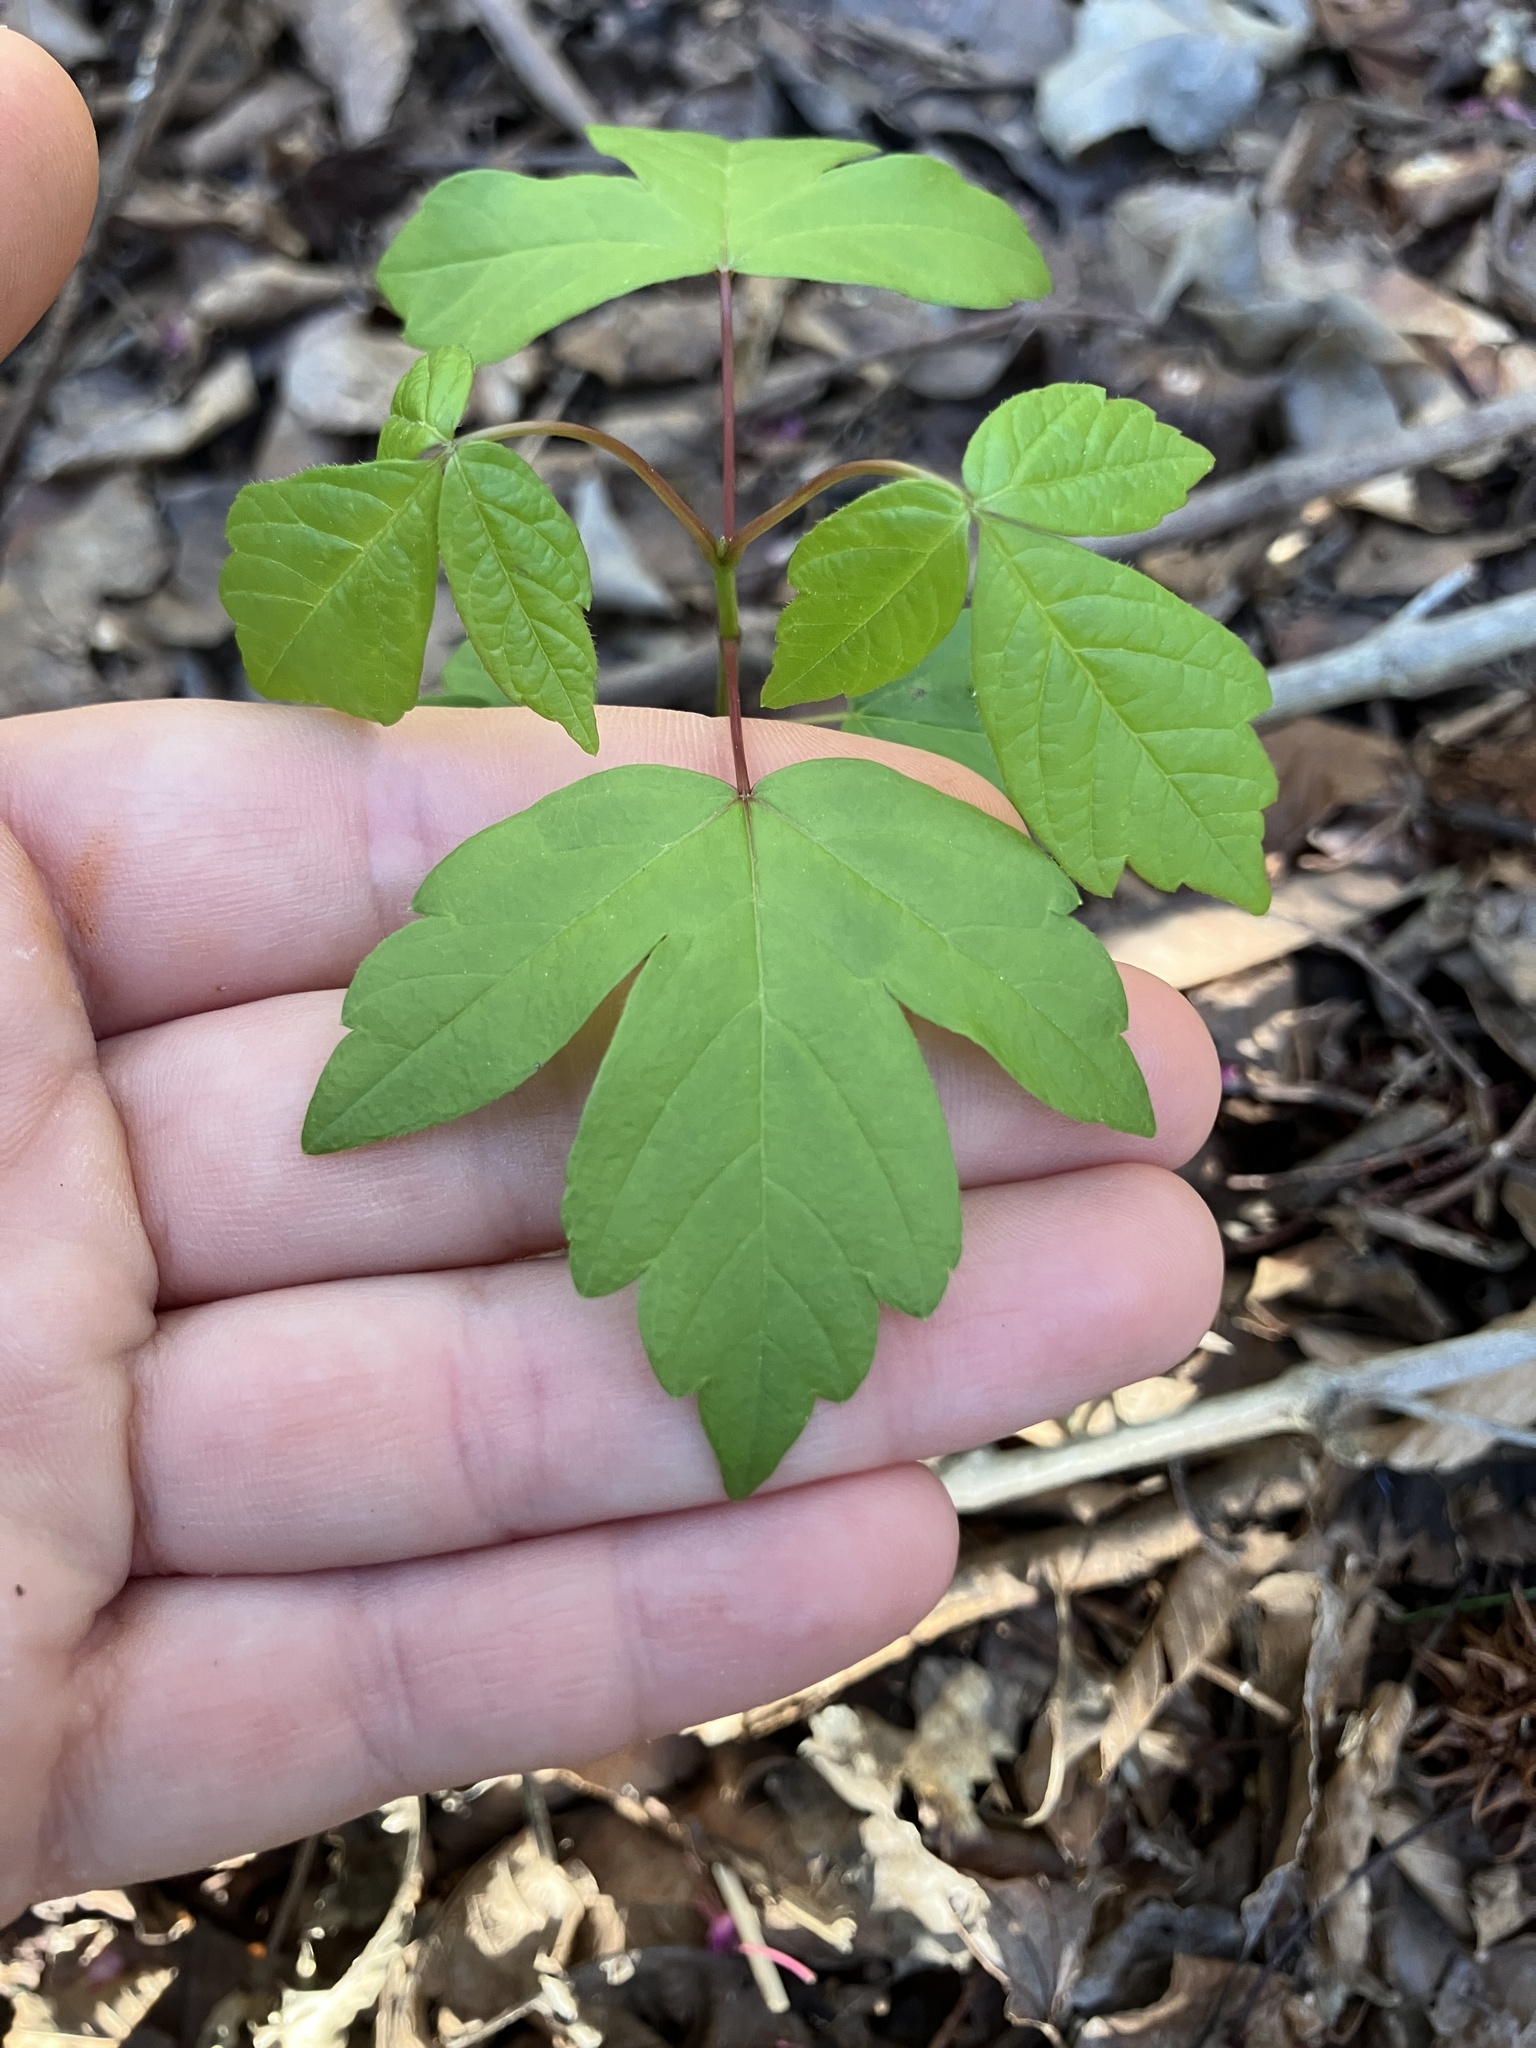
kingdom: Plantae
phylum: Tracheophyta
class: Magnoliopsida
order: Sapindales
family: Sapindaceae
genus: Acer
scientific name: Acer negundo
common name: Ashleaf maple
